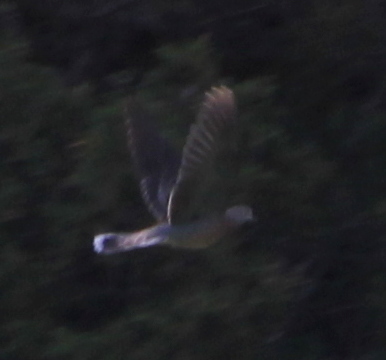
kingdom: Animalia
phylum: Chordata
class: Aves
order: Columbiformes
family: Columbidae
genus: Streptopelia
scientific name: Streptopelia orientalis
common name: Oriental turtle dove
